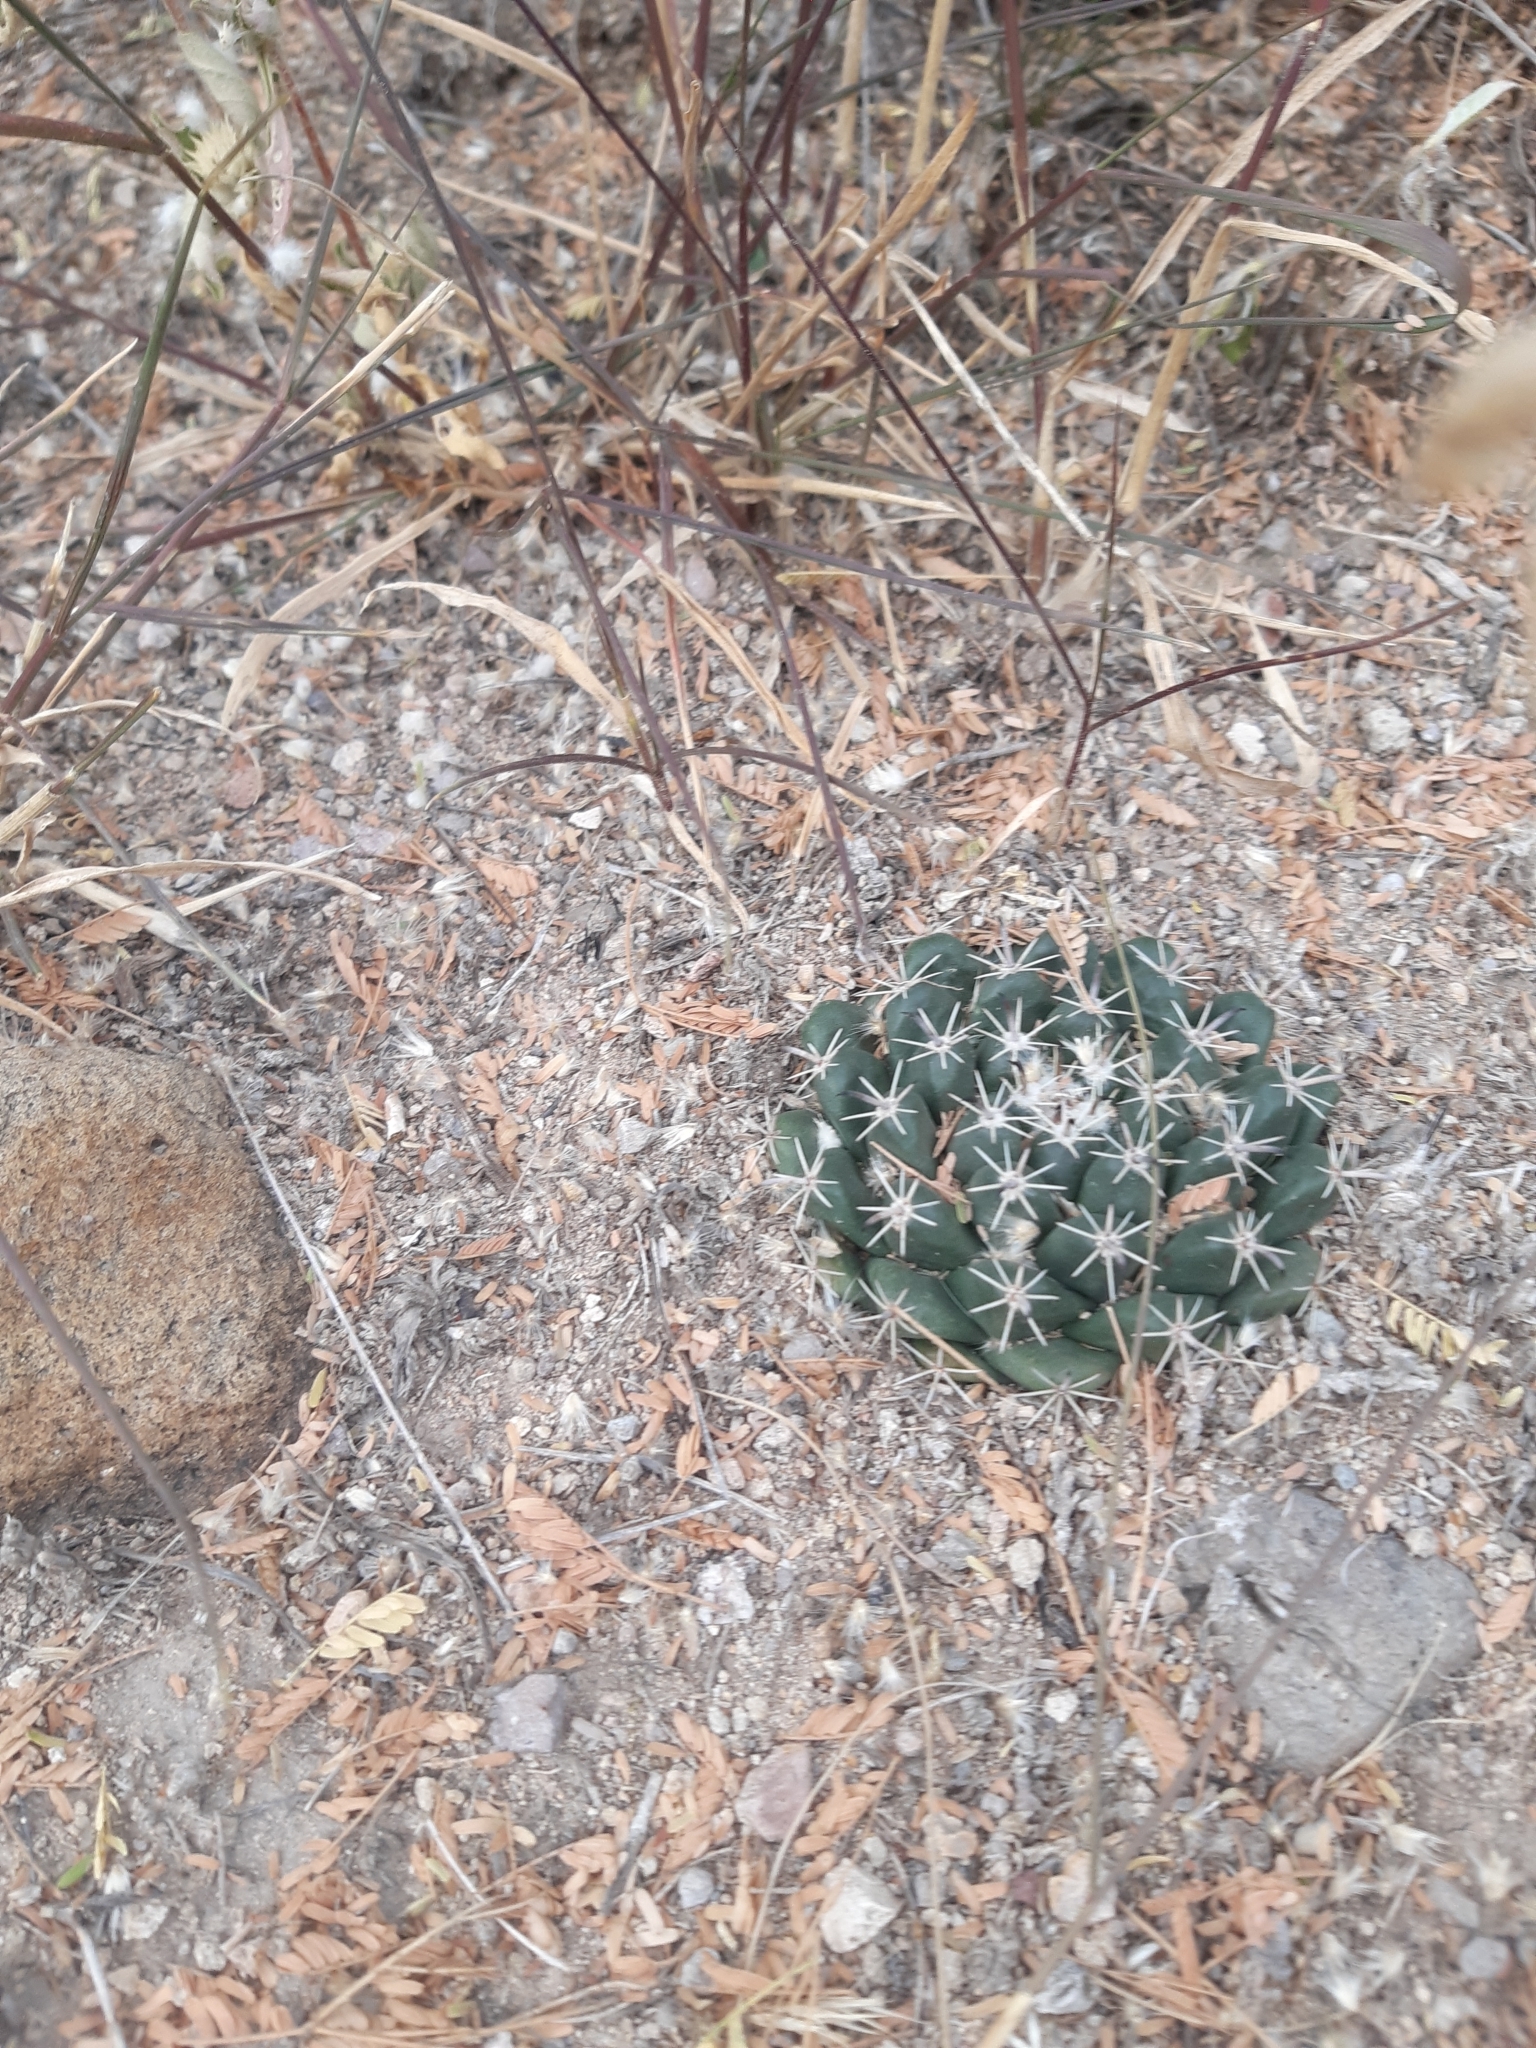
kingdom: Plantae
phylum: Tracheophyta
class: Magnoliopsida
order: Caryophyllales
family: Cactaceae
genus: Mammillaria
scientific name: Mammillaria uncinata
